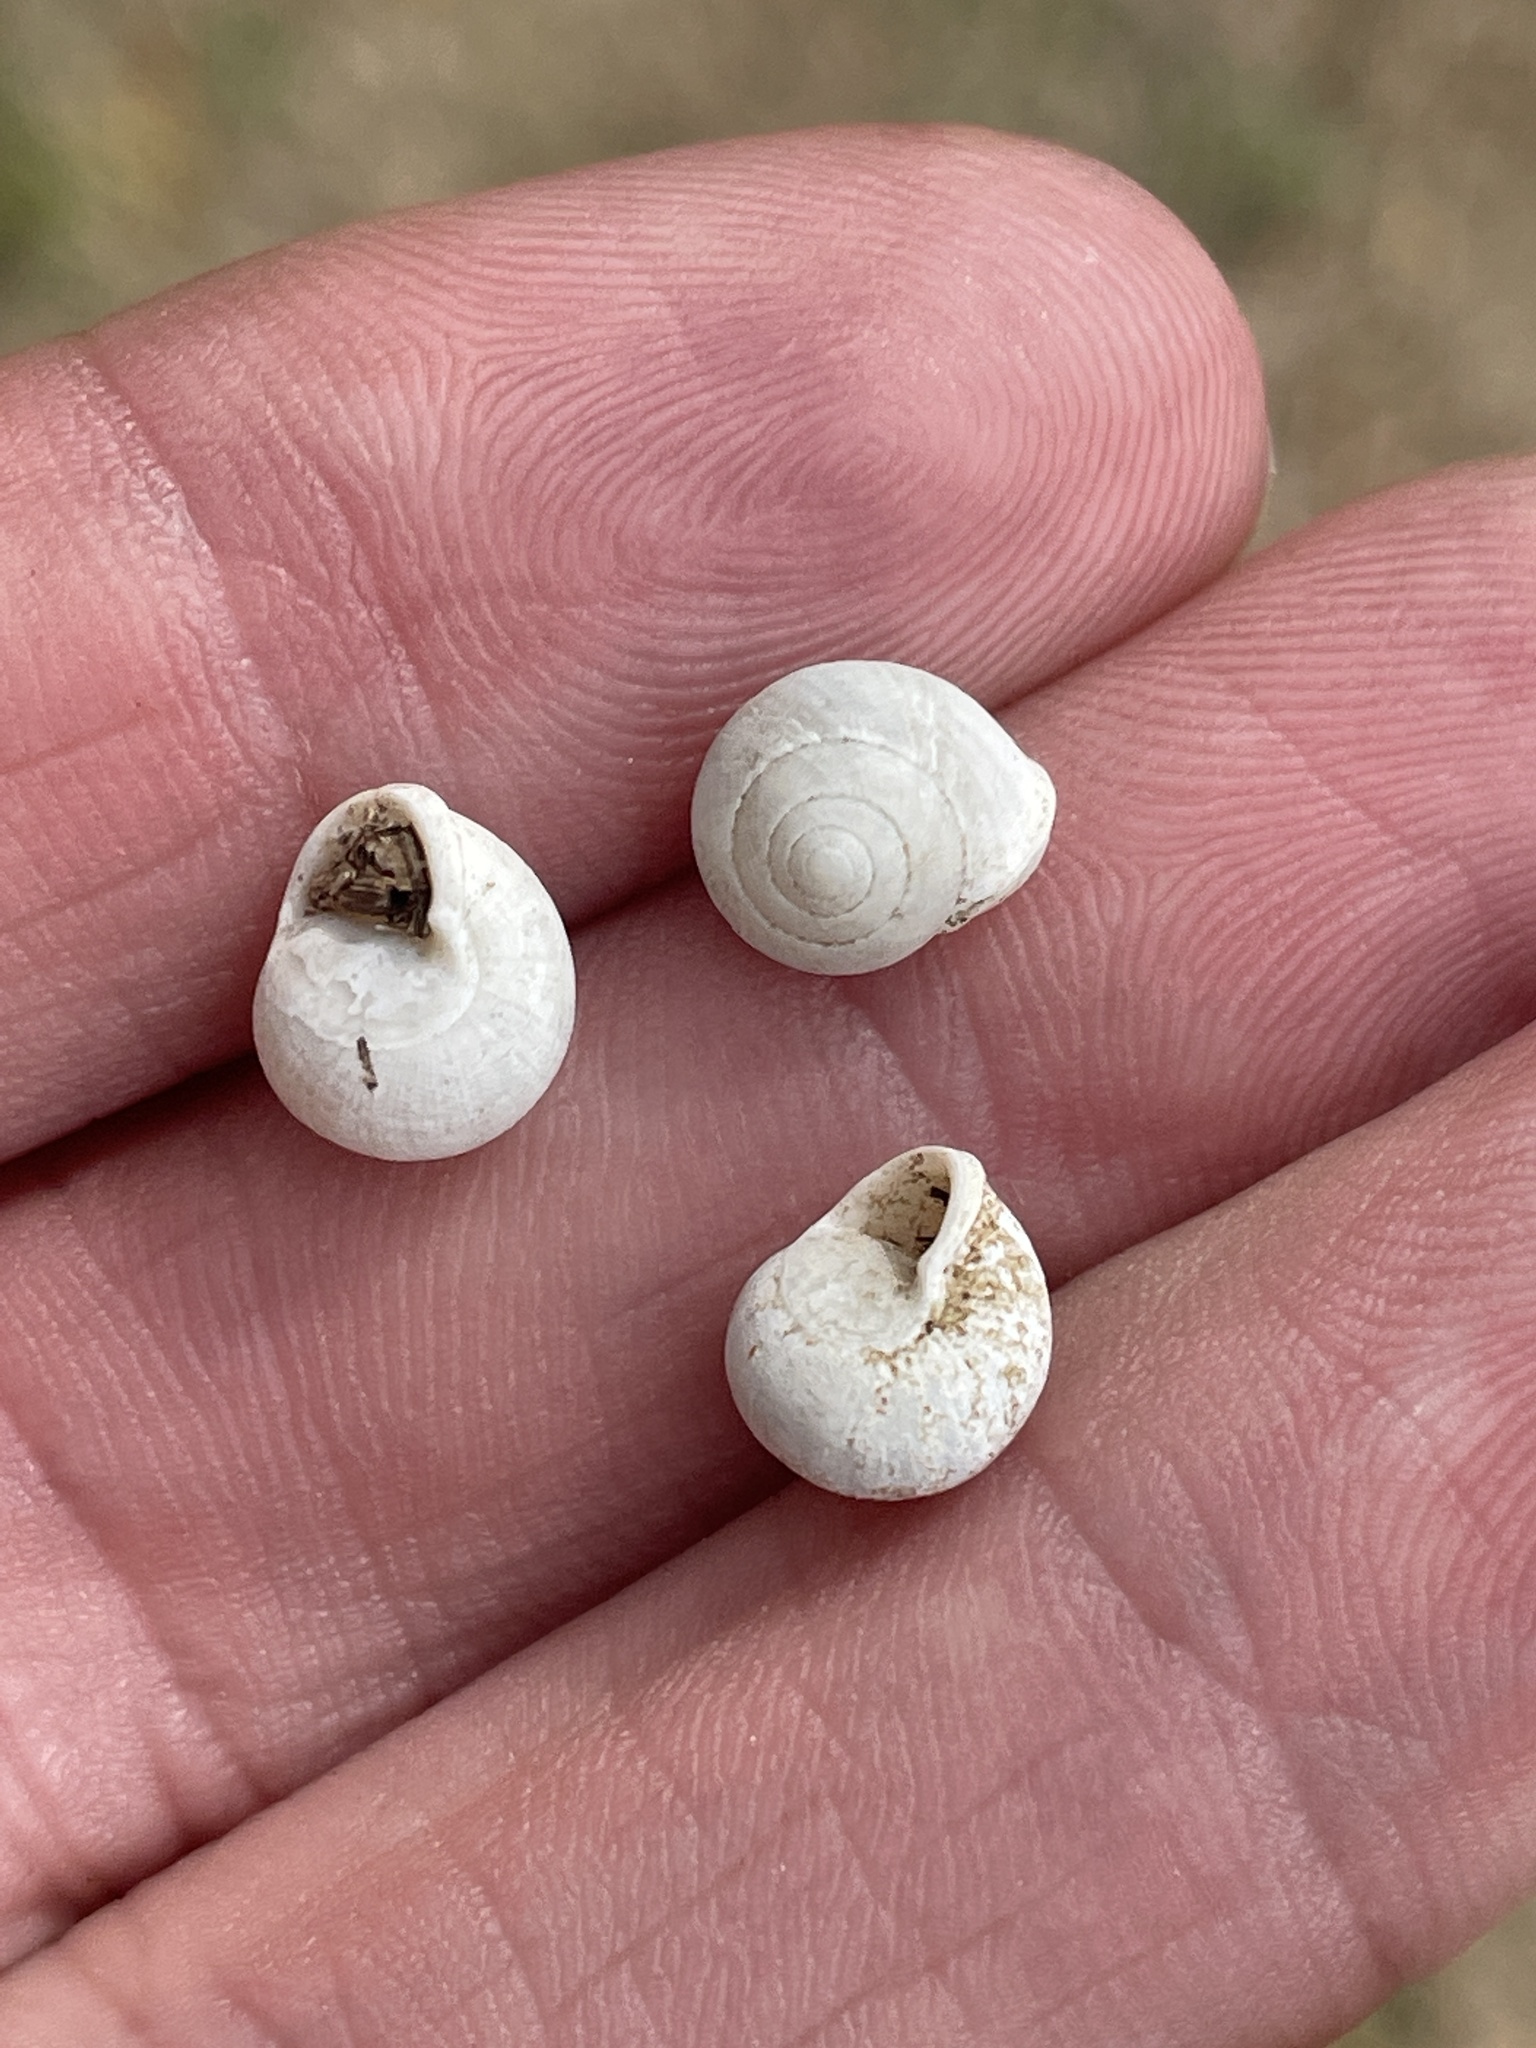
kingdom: Animalia
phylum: Mollusca
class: Gastropoda
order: Cycloneritida
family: Helicinidae
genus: Helicina
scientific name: Helicina orbiculata
